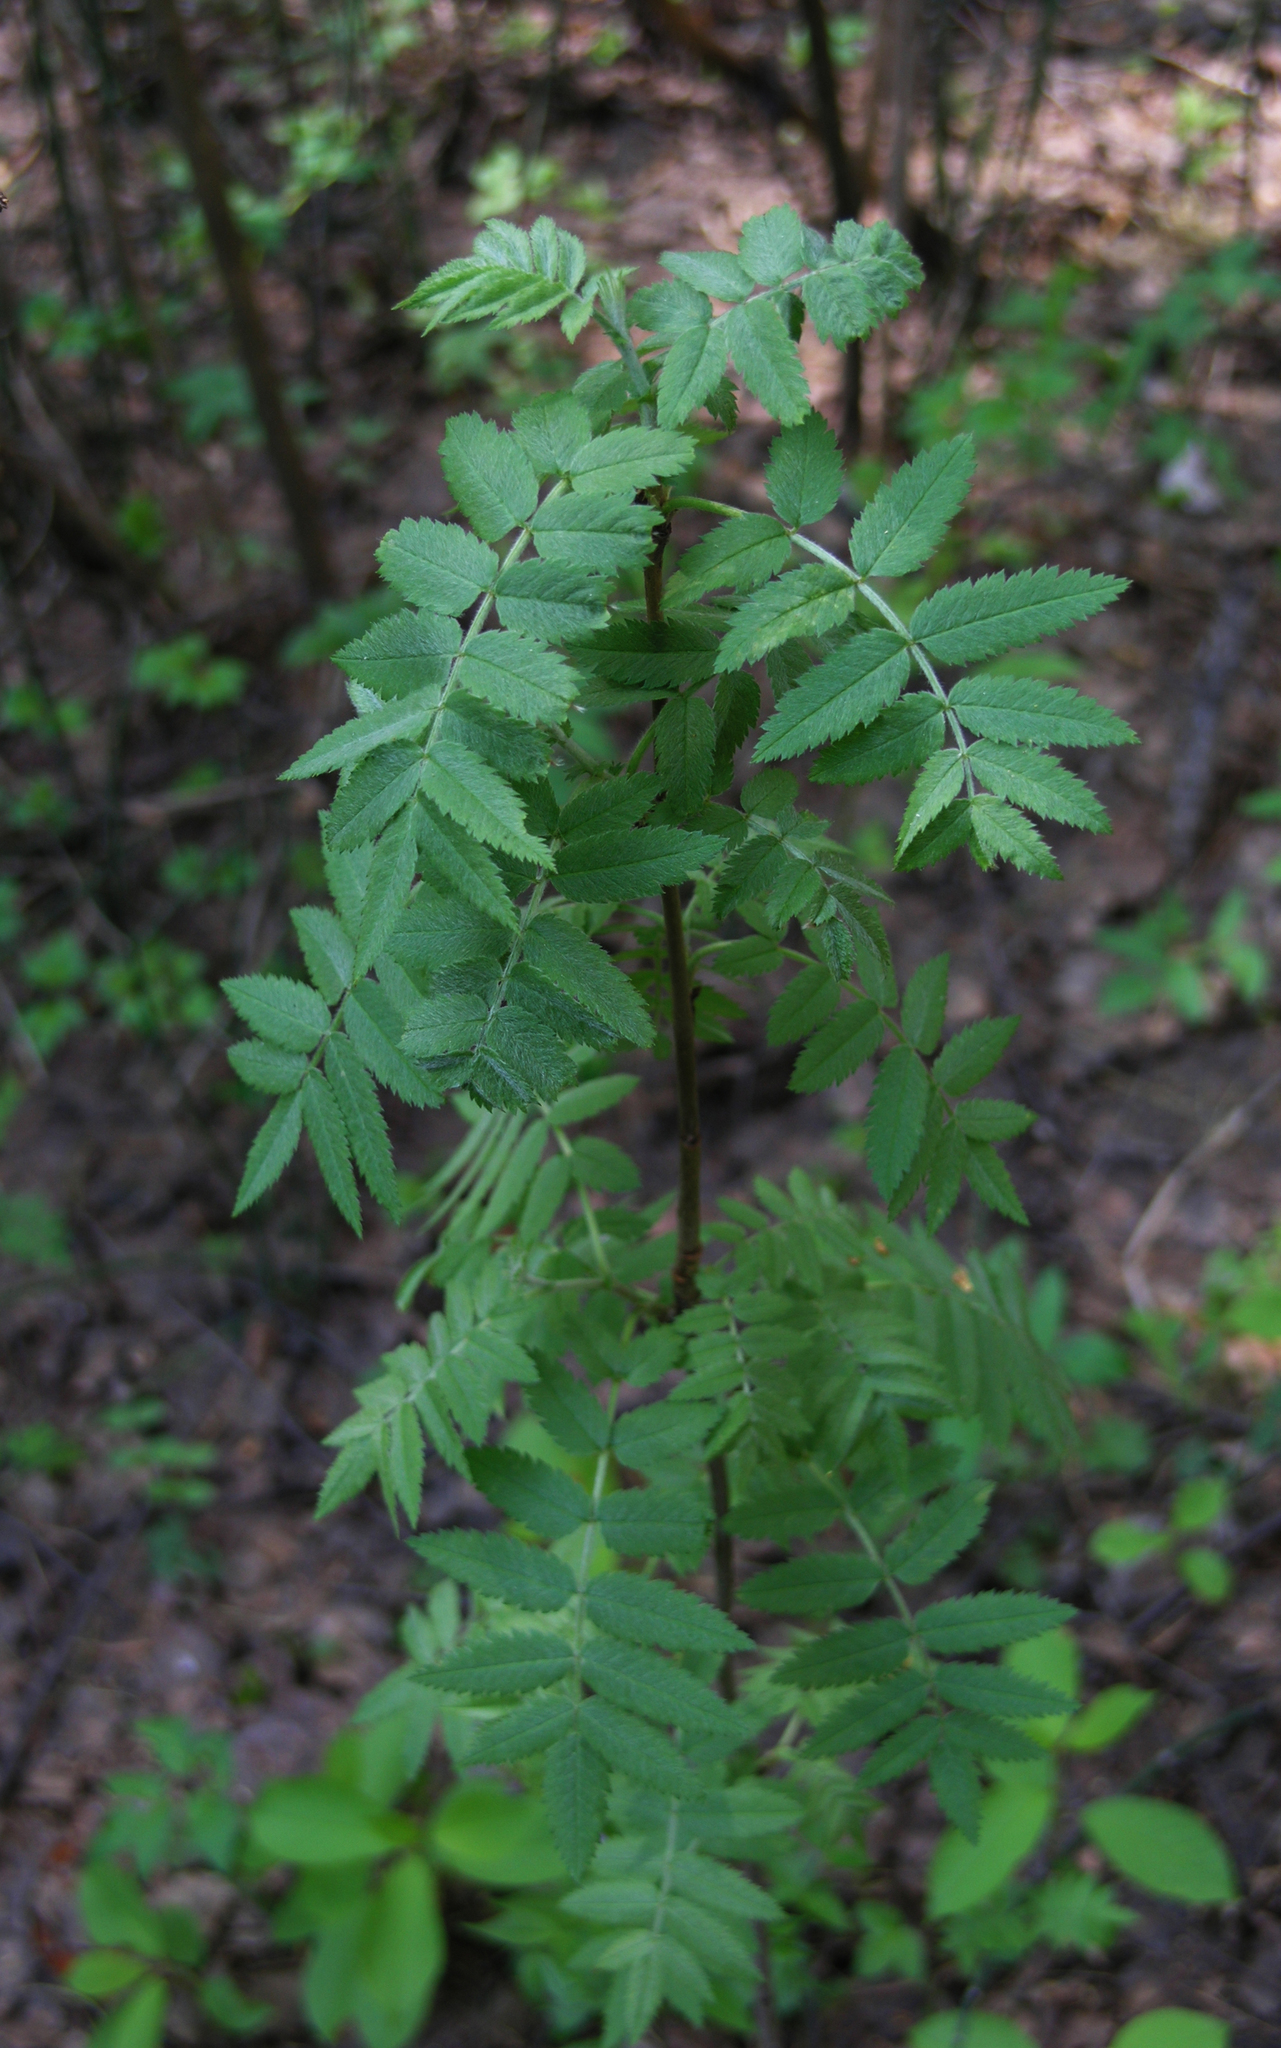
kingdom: Plantae
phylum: Tracheophyta
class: Magnoliopsida
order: Rosales
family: Rosaceae
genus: Sorbus
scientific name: Sorbus aucuparia
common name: Rowan
